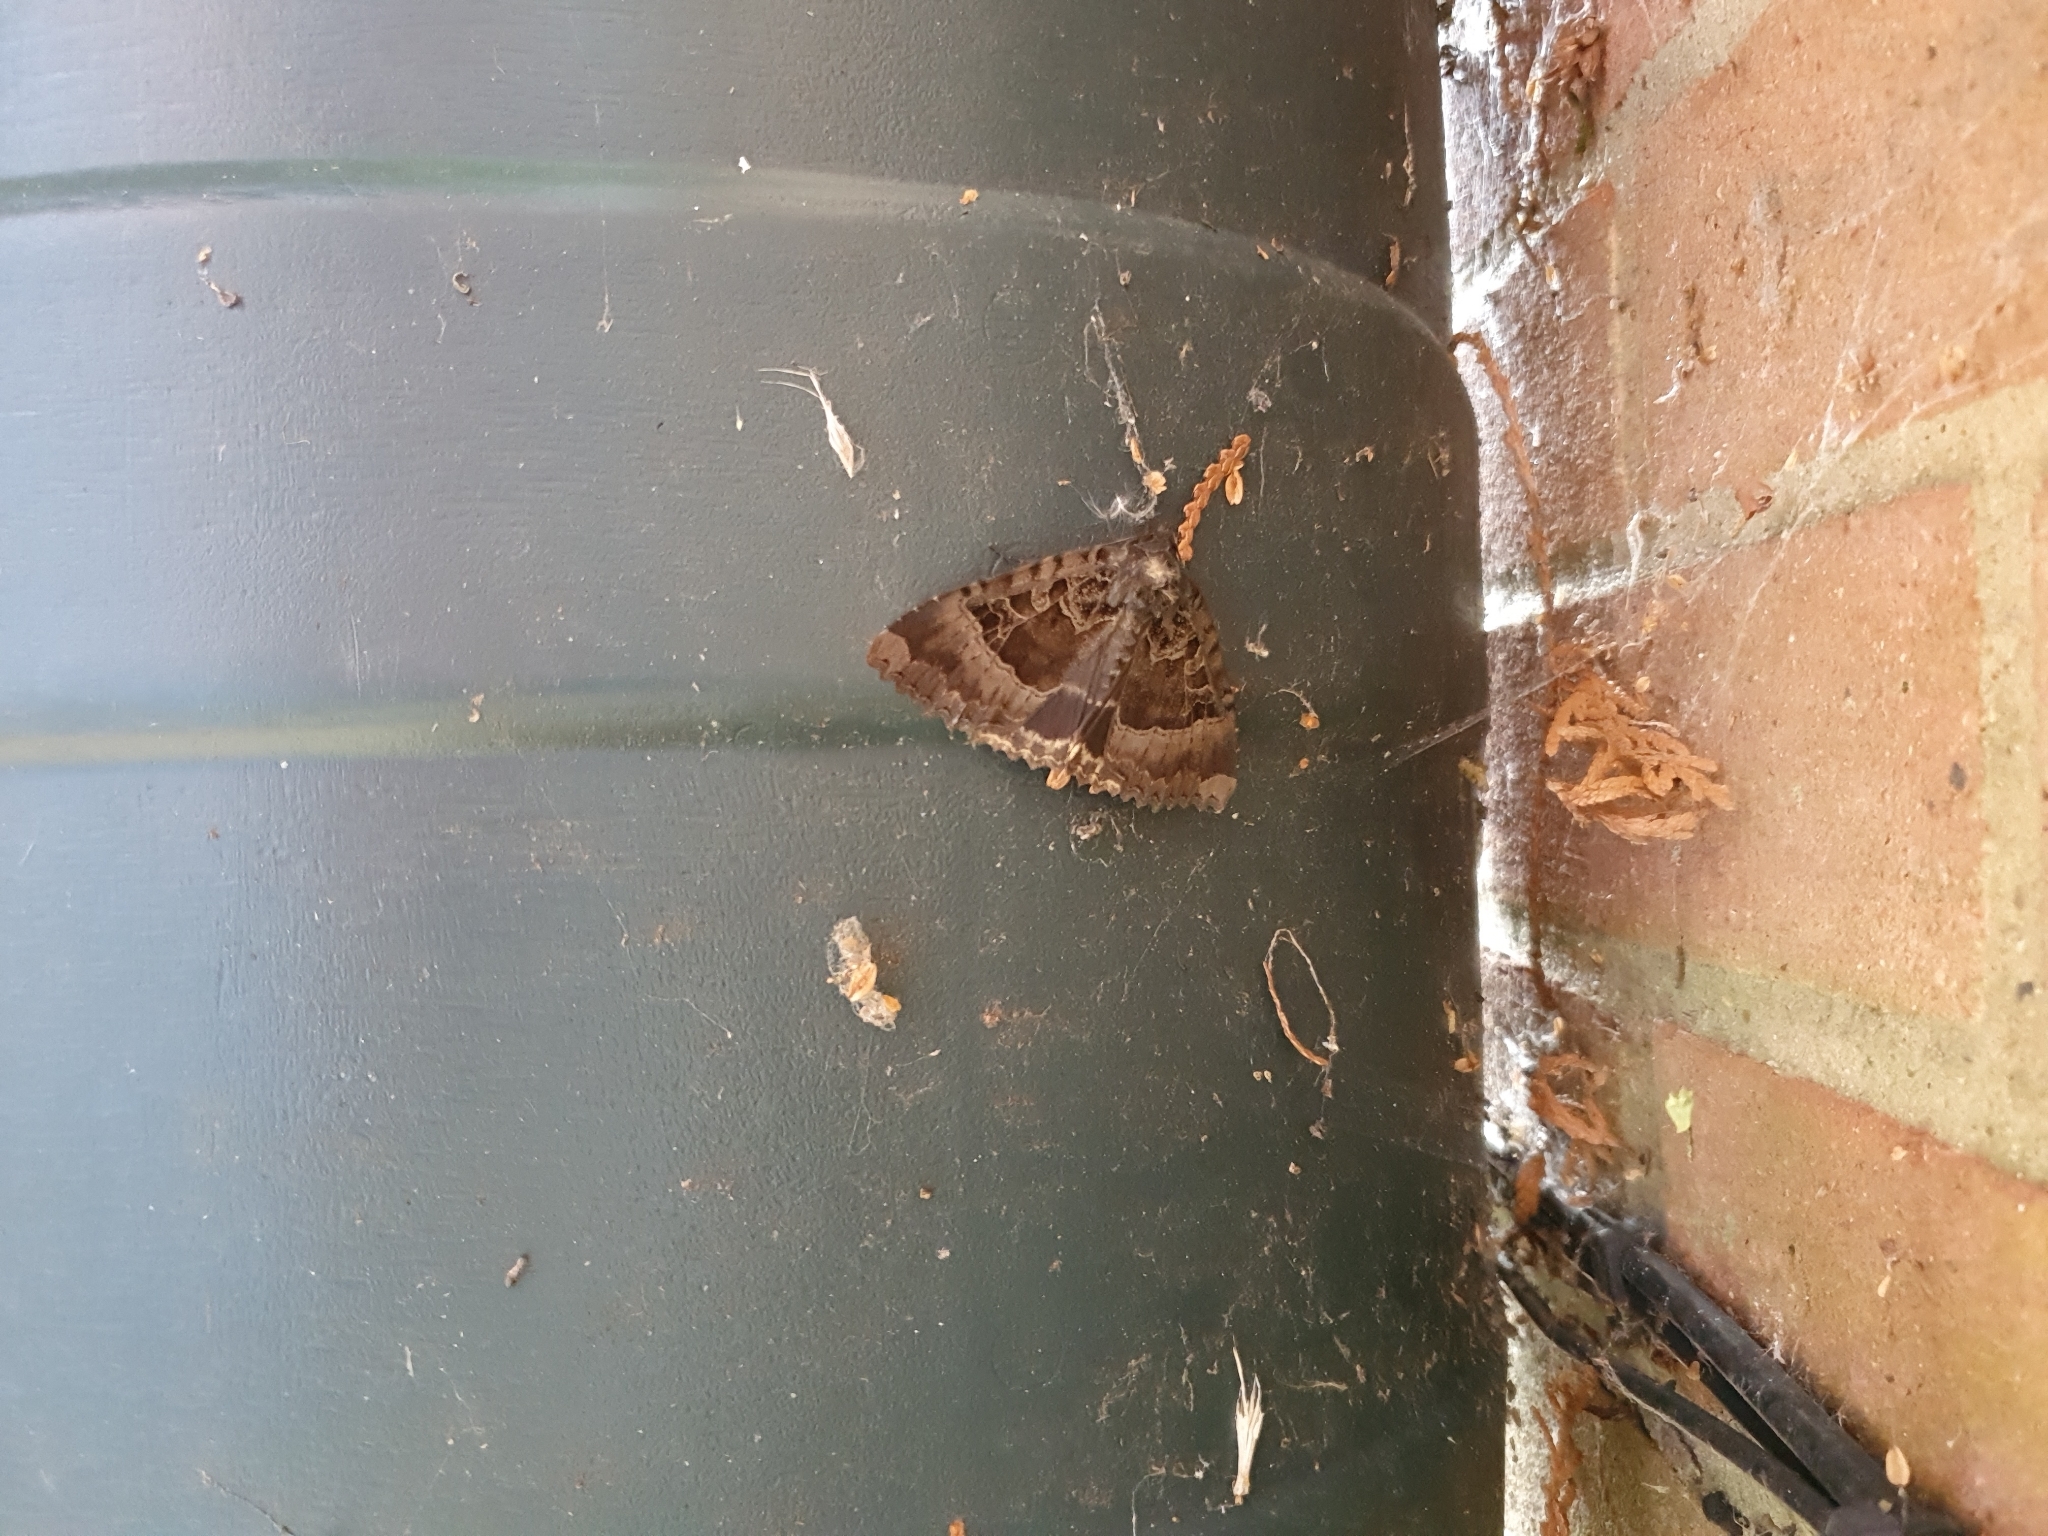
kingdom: Animalia
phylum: Arthropoda
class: Insecta
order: Lepidoptera
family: Noctuidae
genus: Mormo
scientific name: Mormo maura
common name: Old lady
